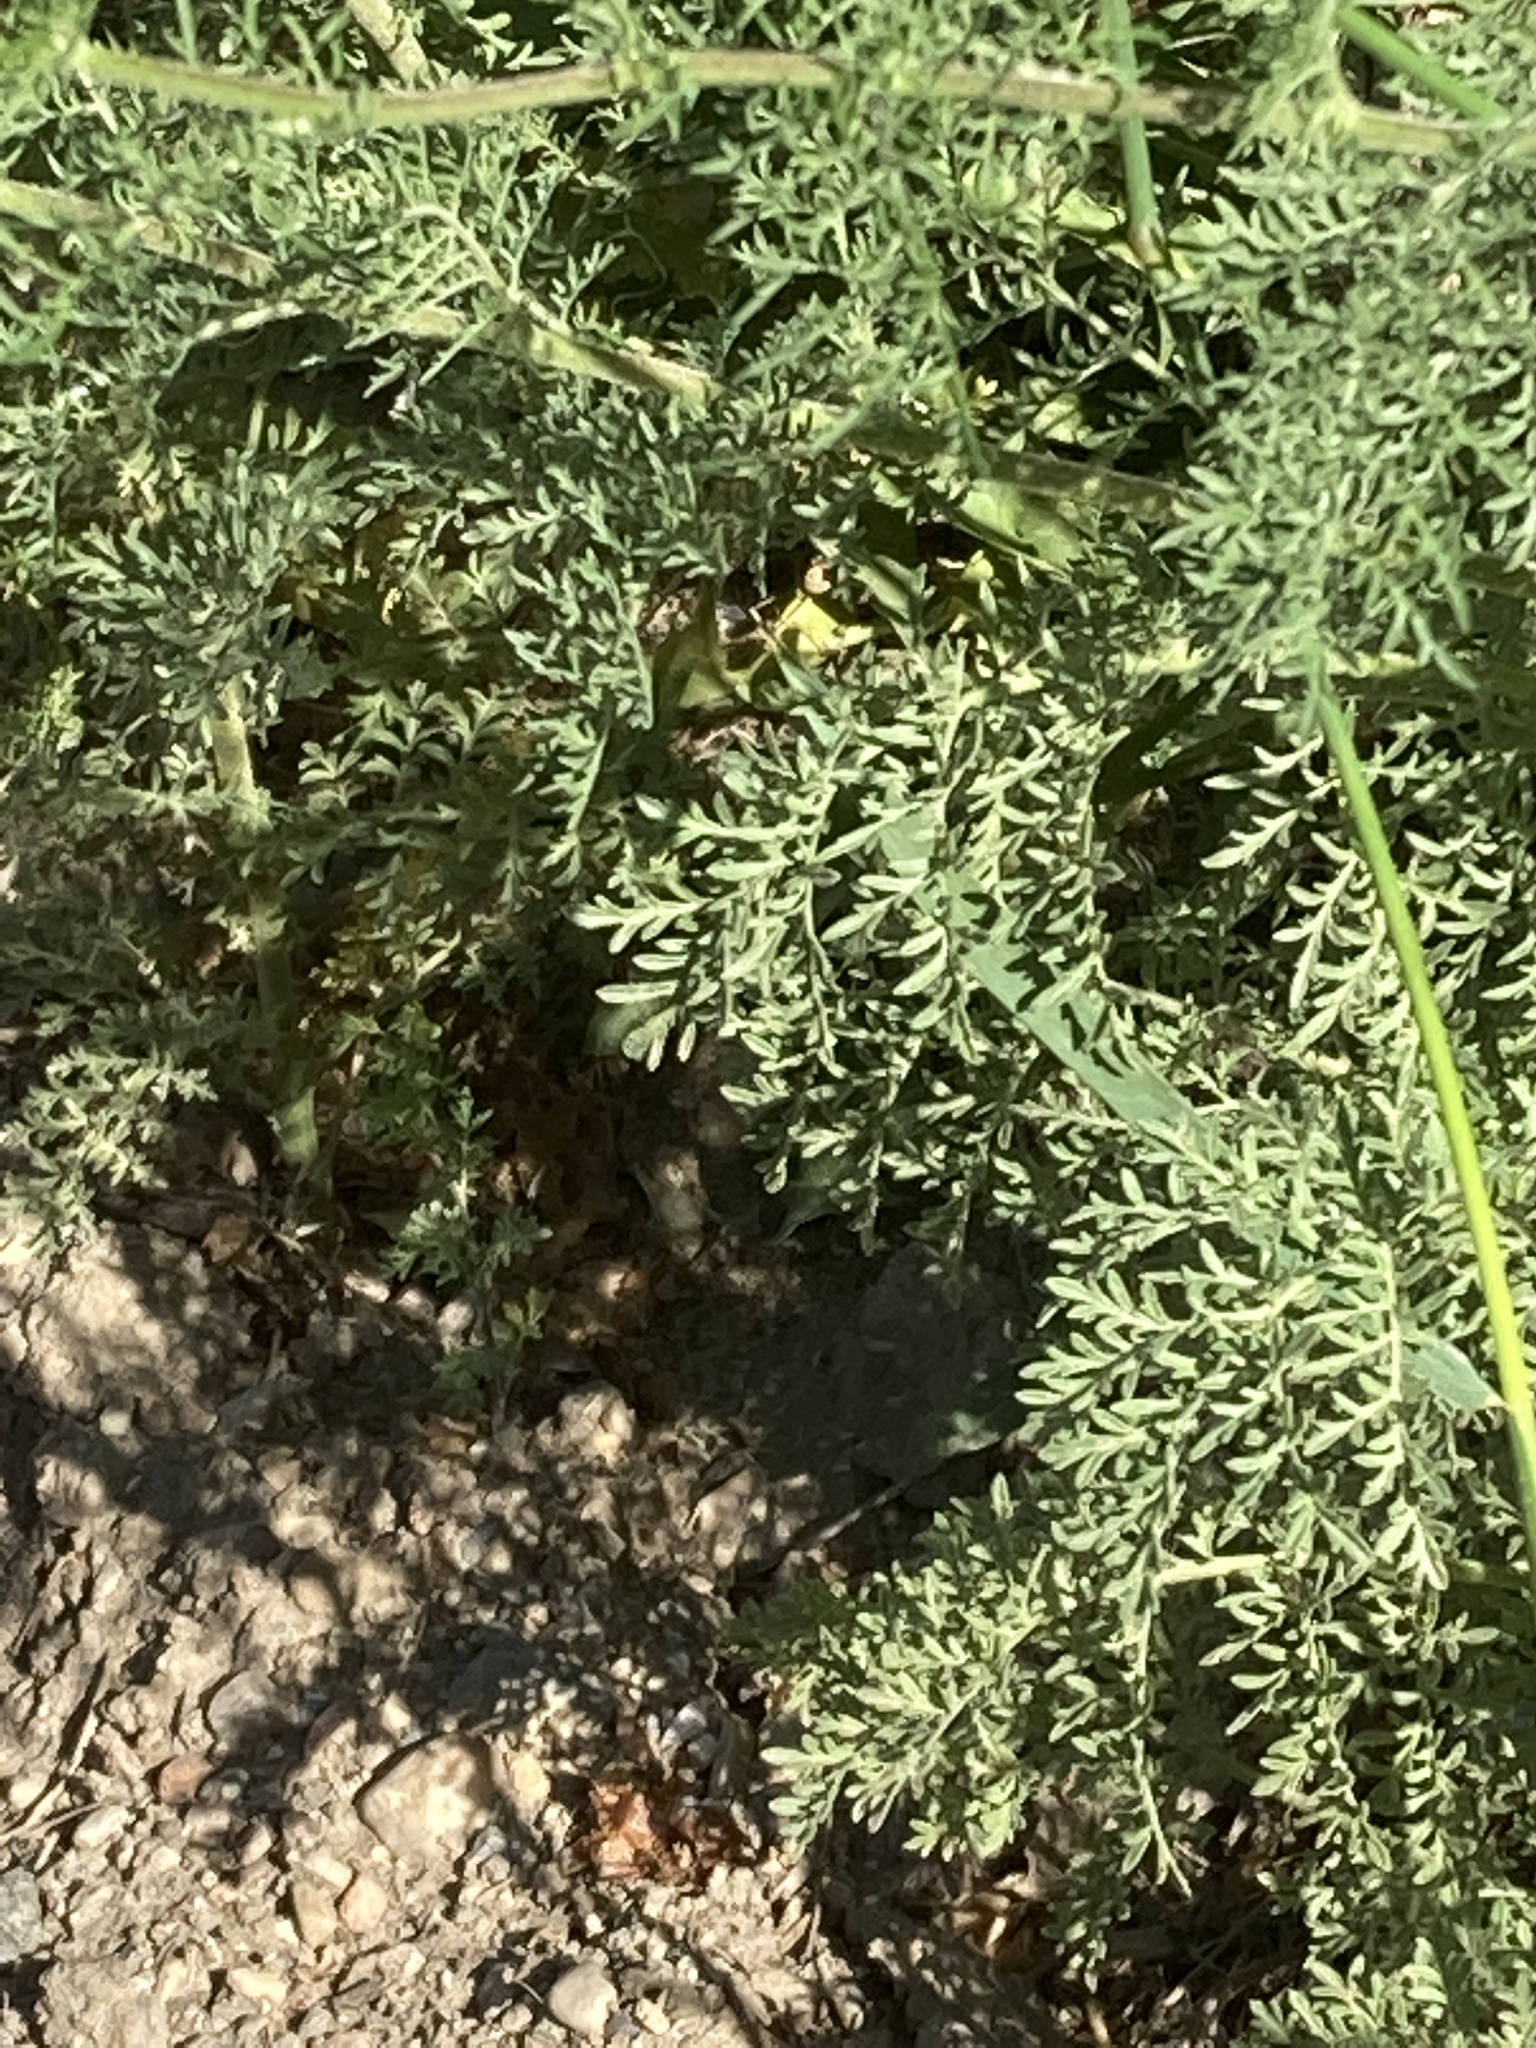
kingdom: Plantae
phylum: Tracheophyta
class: Magnoliopsida
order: Brassicales
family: Brassicaceae
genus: Descurainia
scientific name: Descurainia sophia
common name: Flixweed
